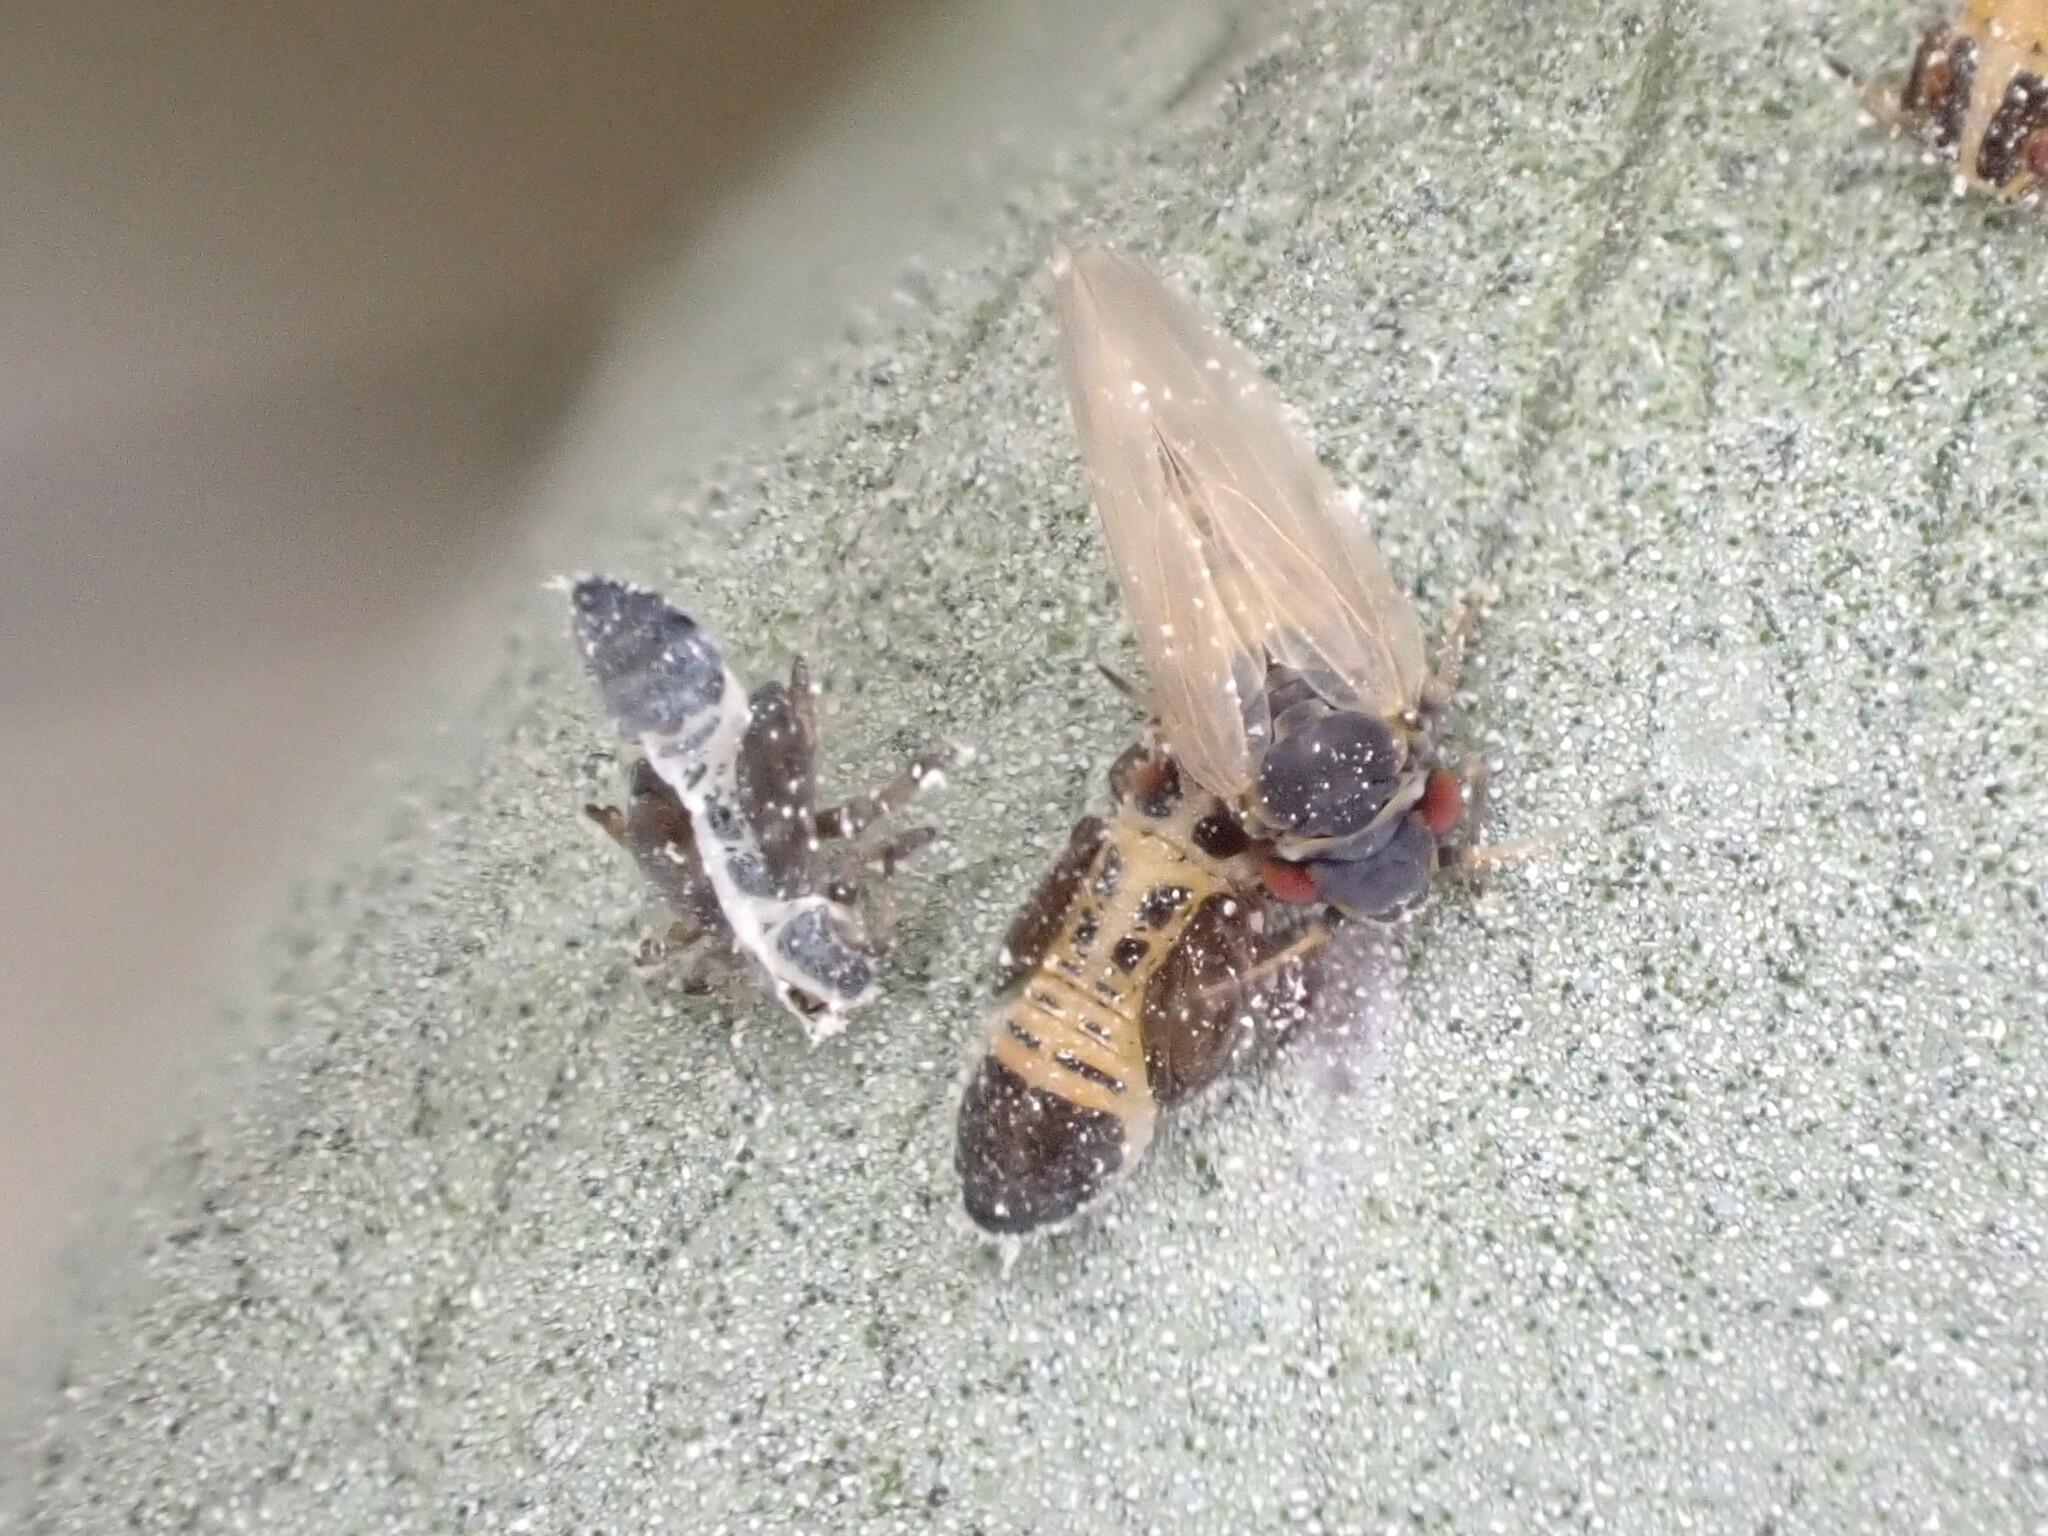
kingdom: Animalia
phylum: Arthropoda
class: Insecta
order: Hemiptera
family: Aphalaridae
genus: Ctenarytaina
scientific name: Ctenarytaina eucalypti
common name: Blue gum psyllid
